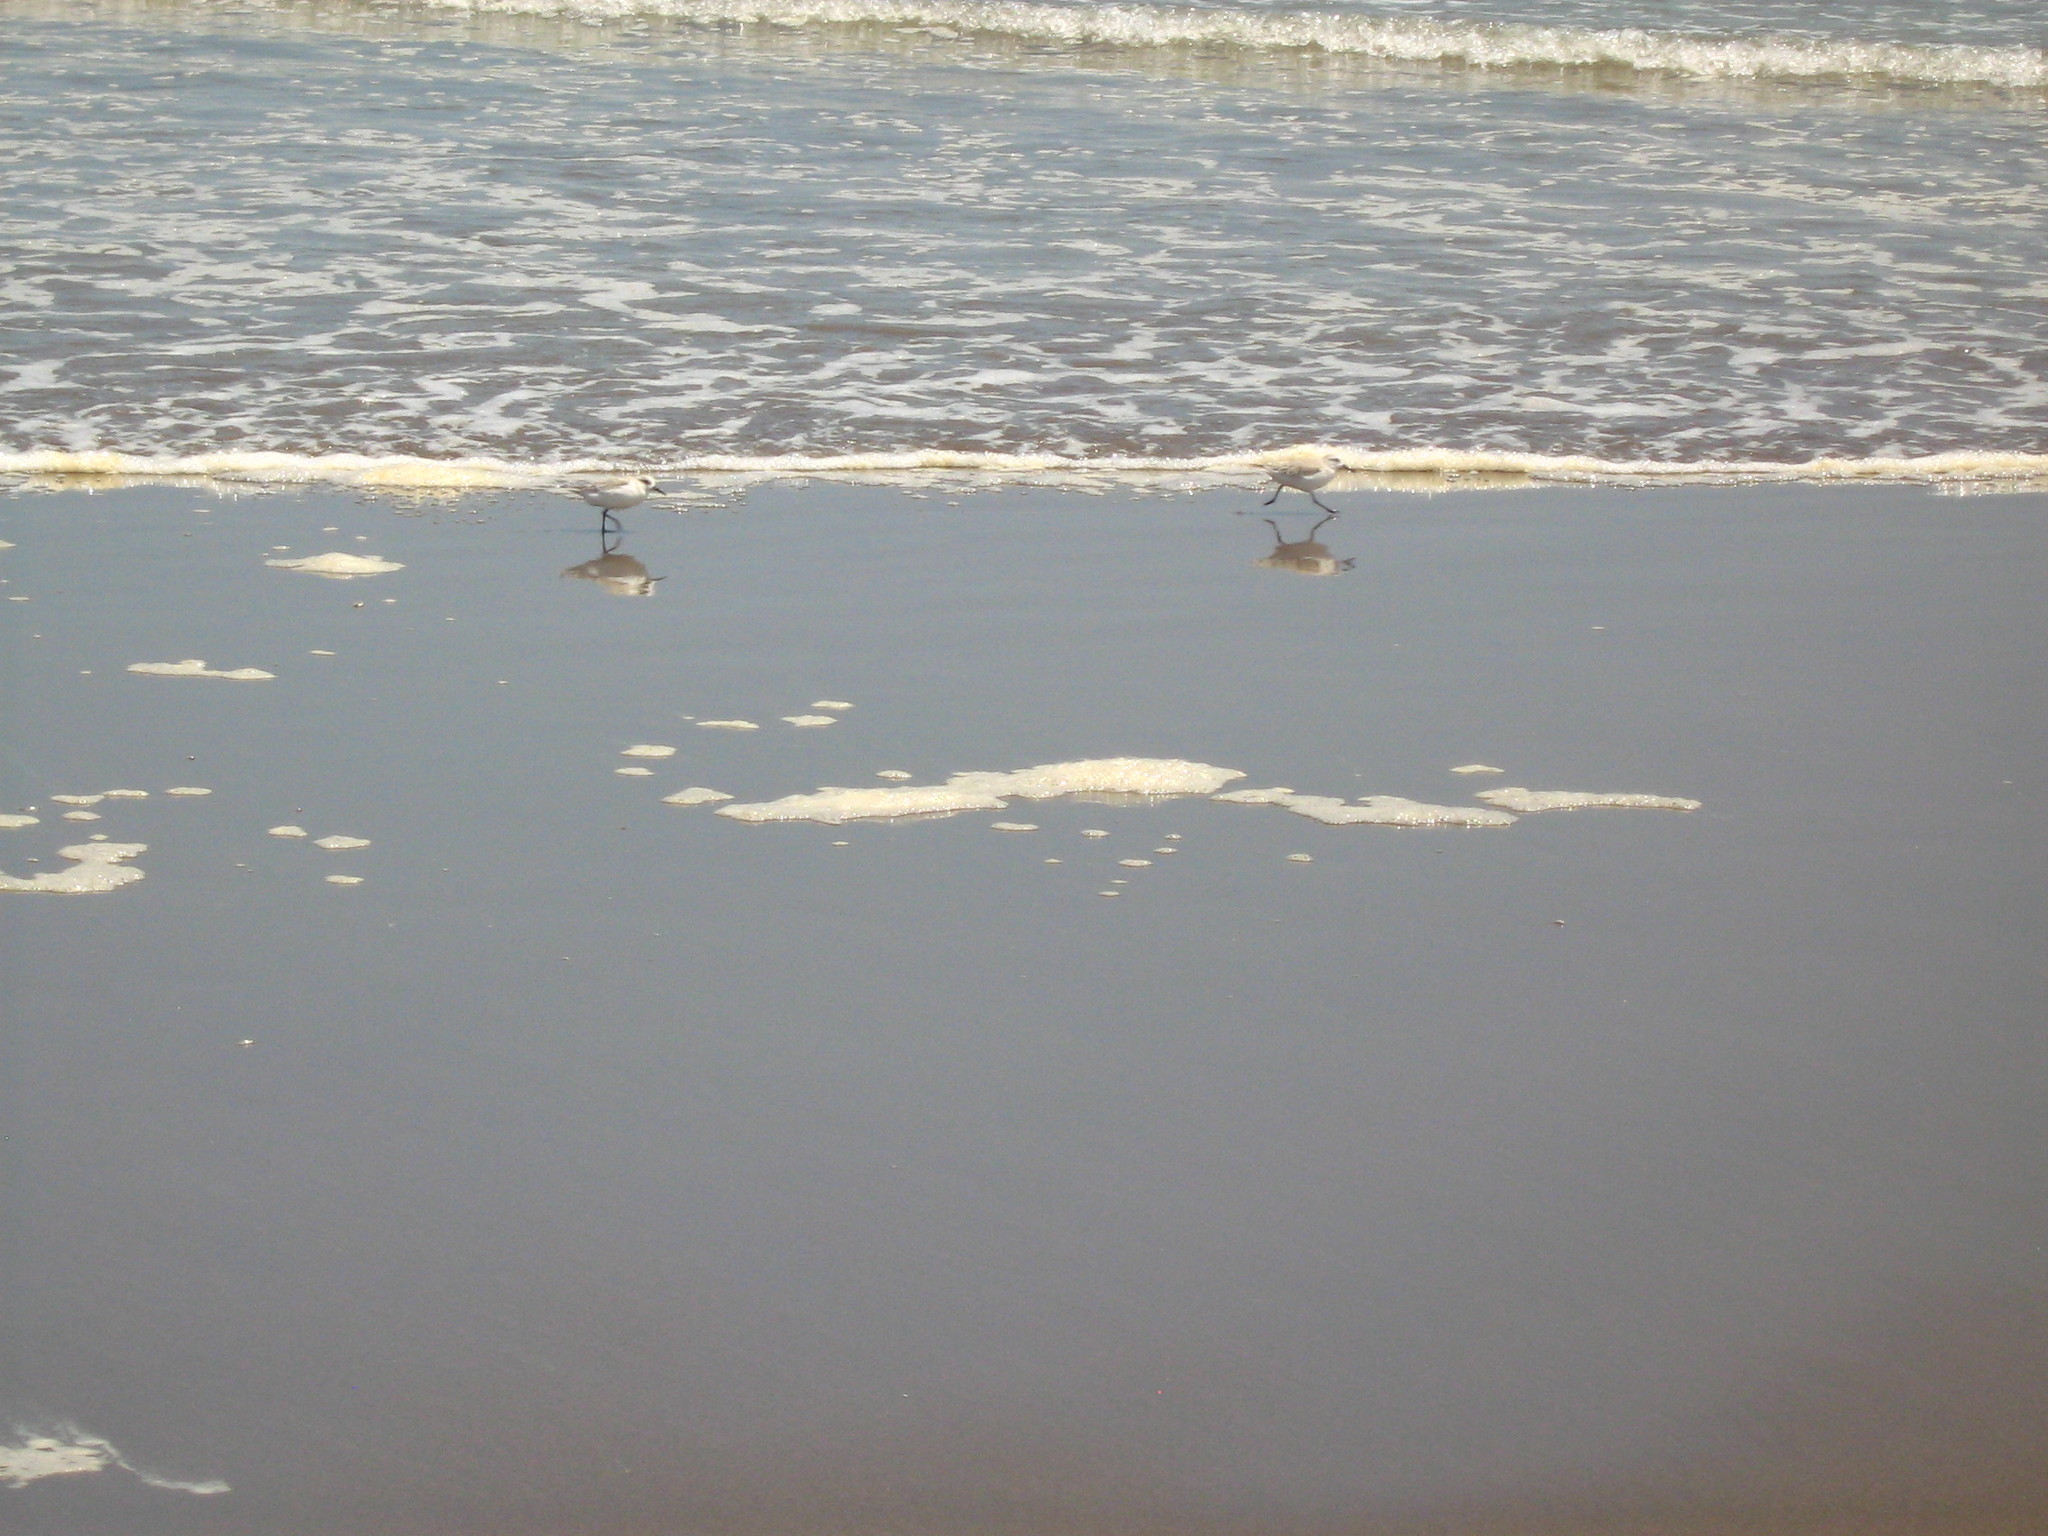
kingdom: Animalia
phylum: Chordata
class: Aves
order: Charadriiformes
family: Scolopacidae
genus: Calidris
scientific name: Calidris alba
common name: Sanderling
